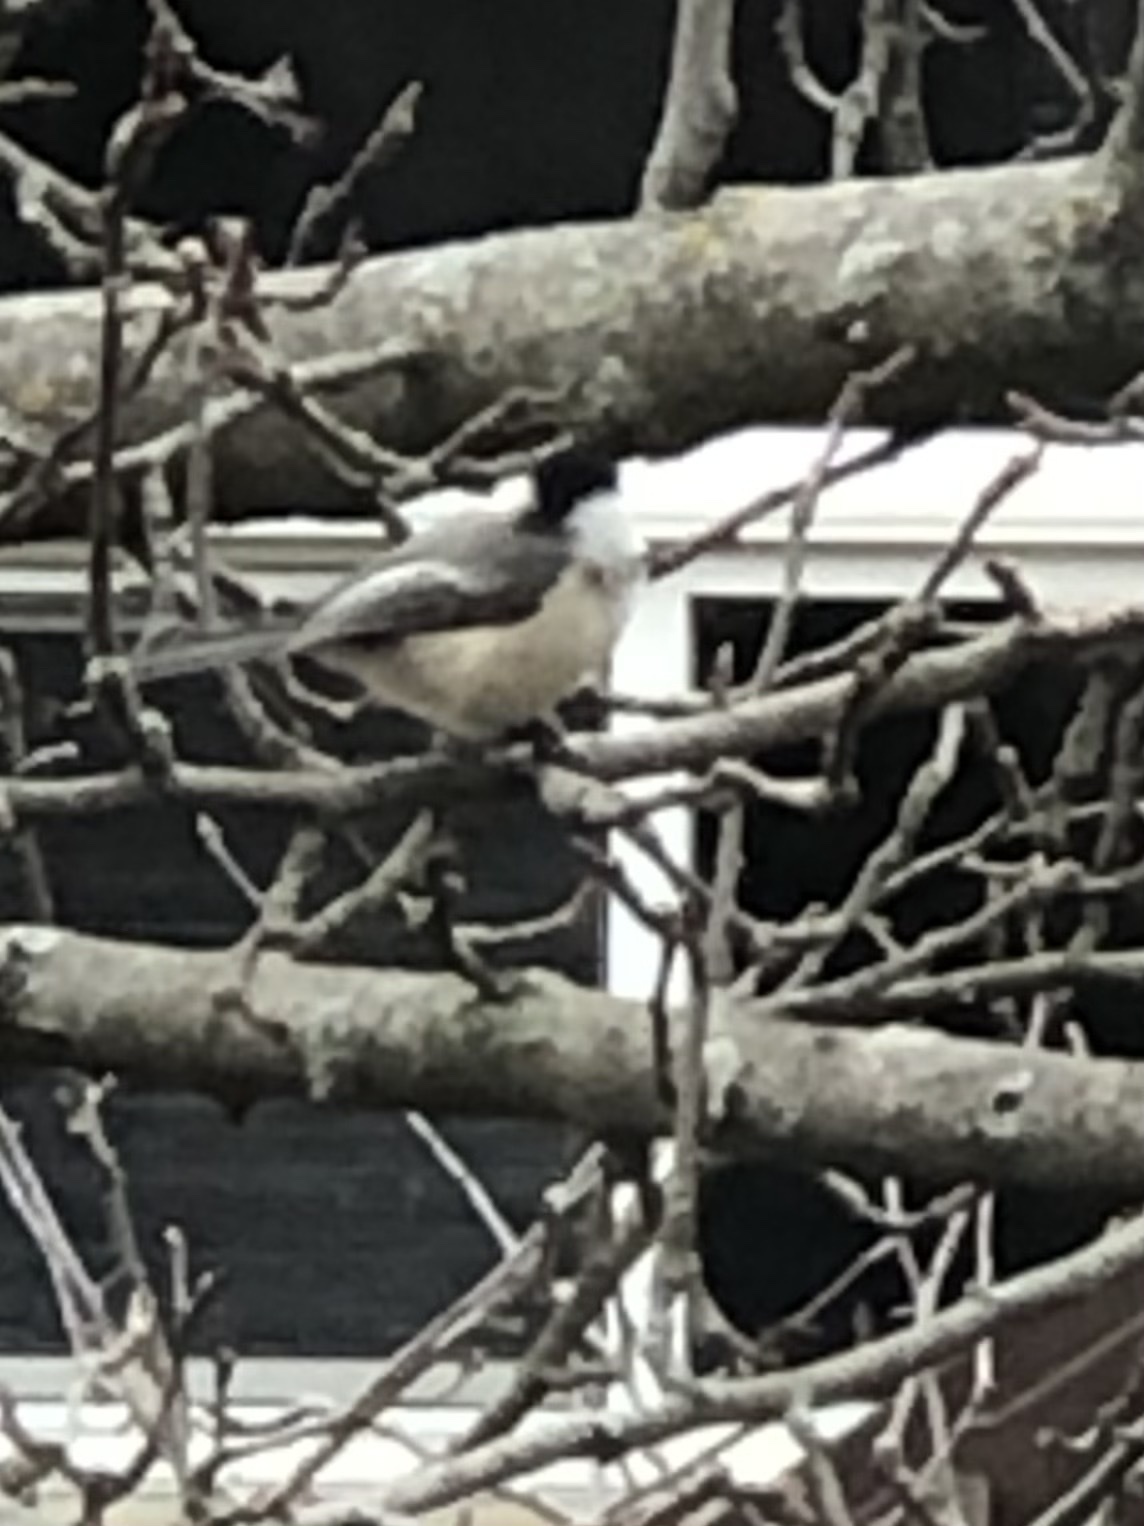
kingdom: Animalia
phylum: Chordata
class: Aves
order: Passeriformes
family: Paridae
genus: Poecile
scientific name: Poecile atricapillus
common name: Black-capped chickadee
